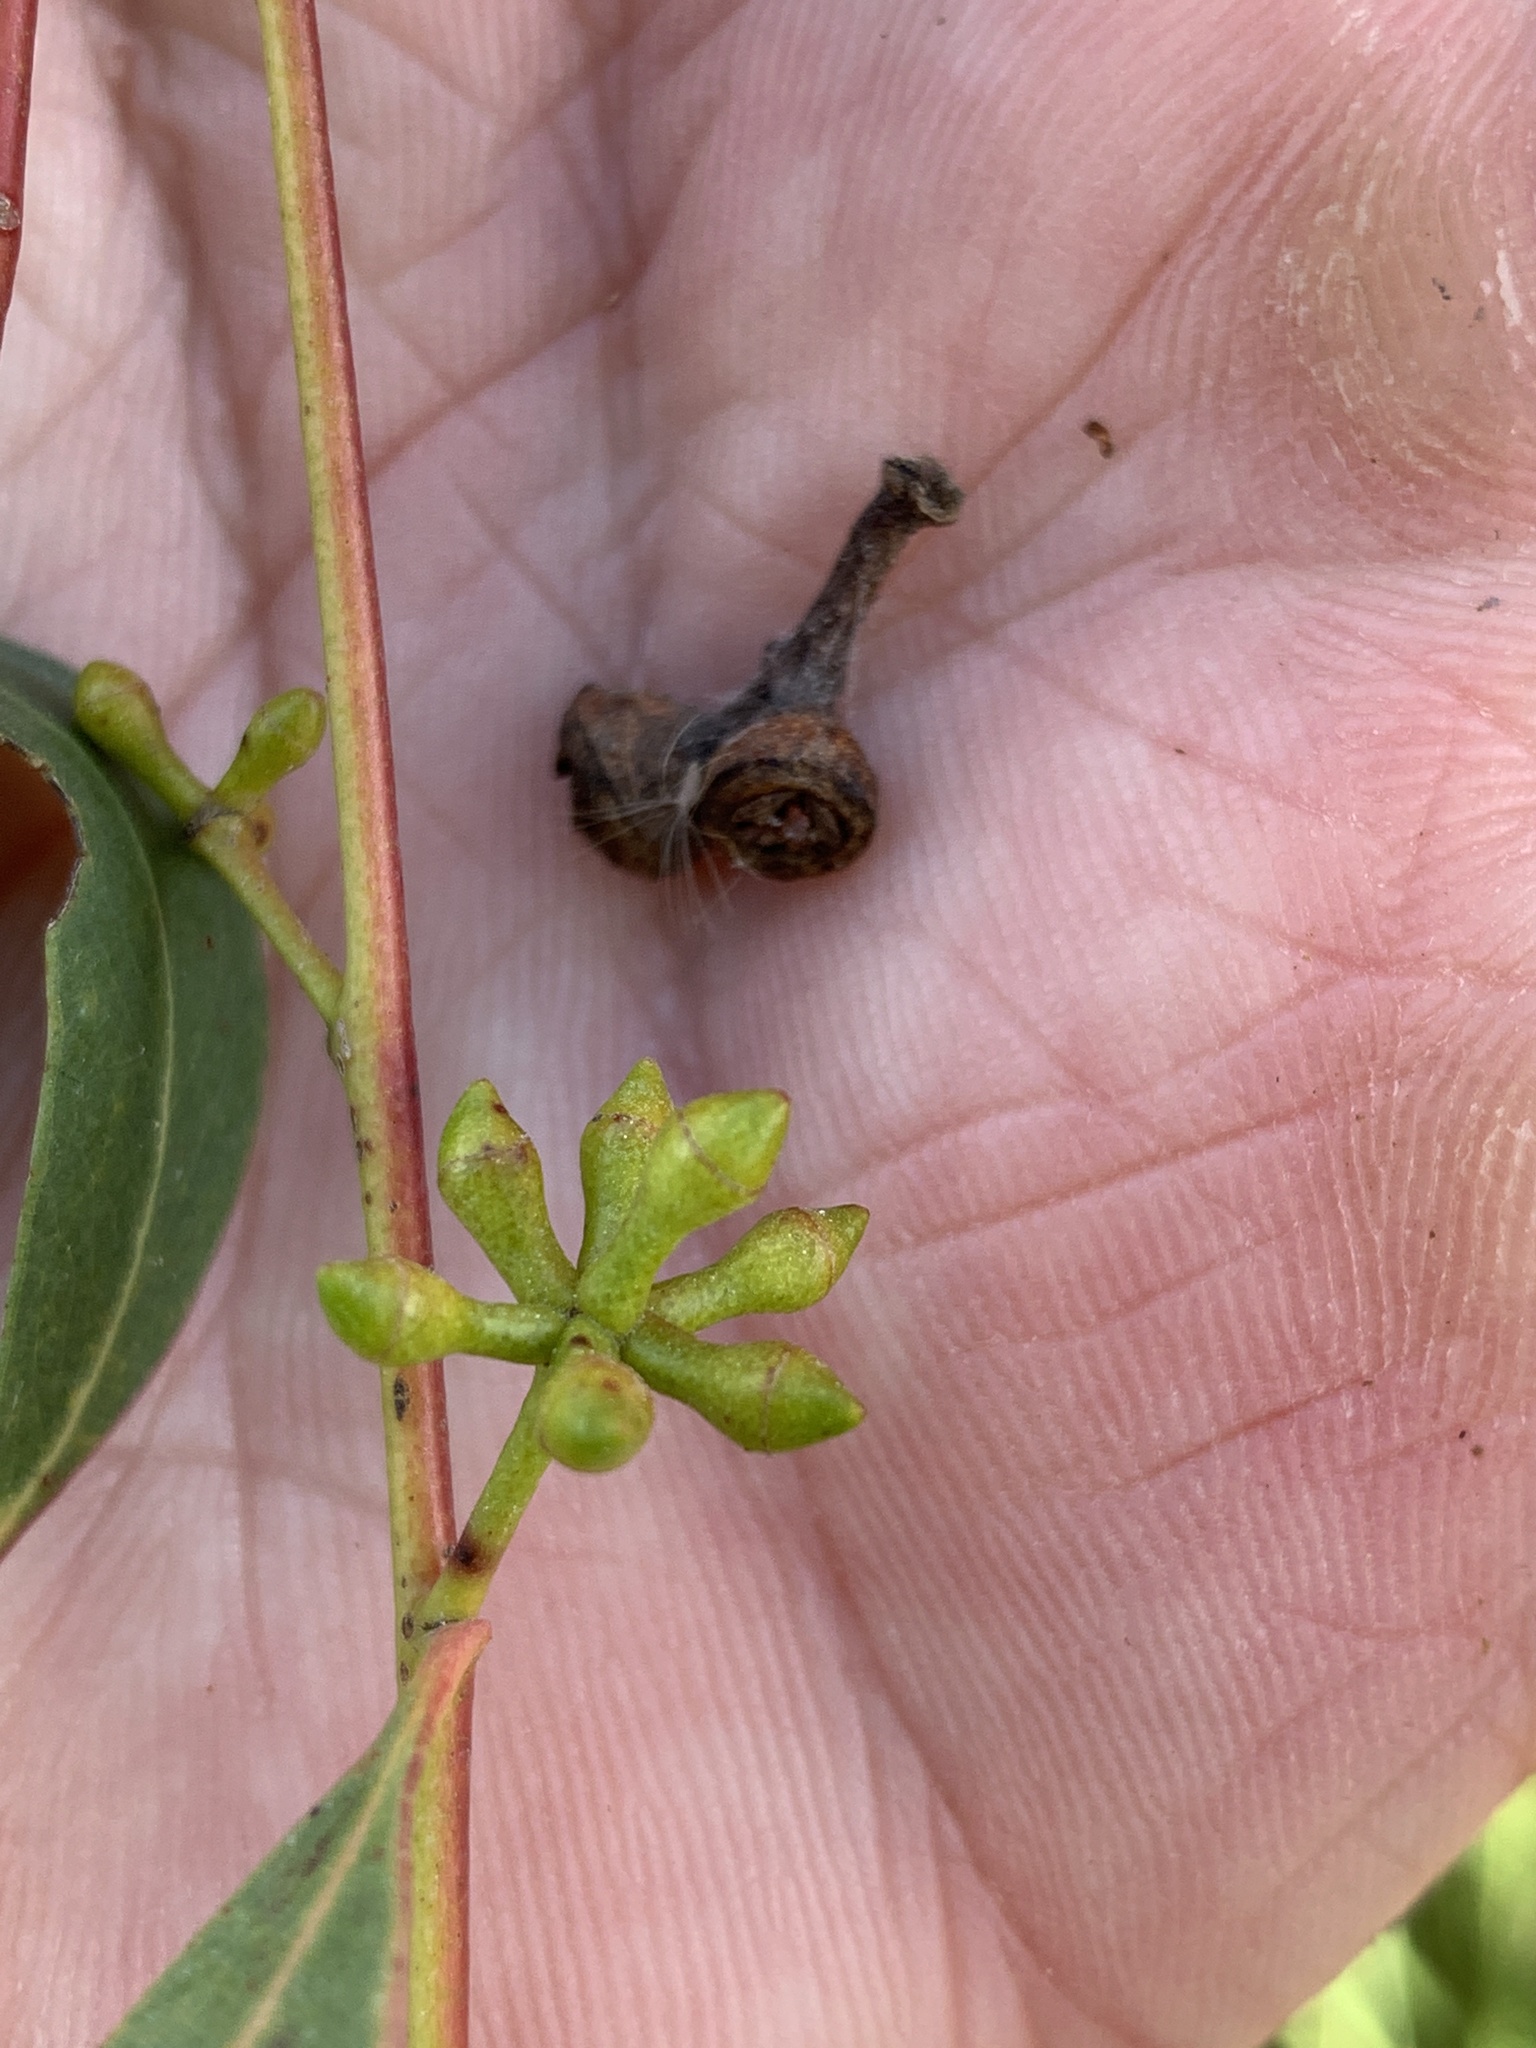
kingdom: Plantae
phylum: Tracheophyta
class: Magnoliopsida
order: Myrtales
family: Myrtaceae
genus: Eucalyptus
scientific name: Eucalyptus macarthurii
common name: Camden-woollybutt
